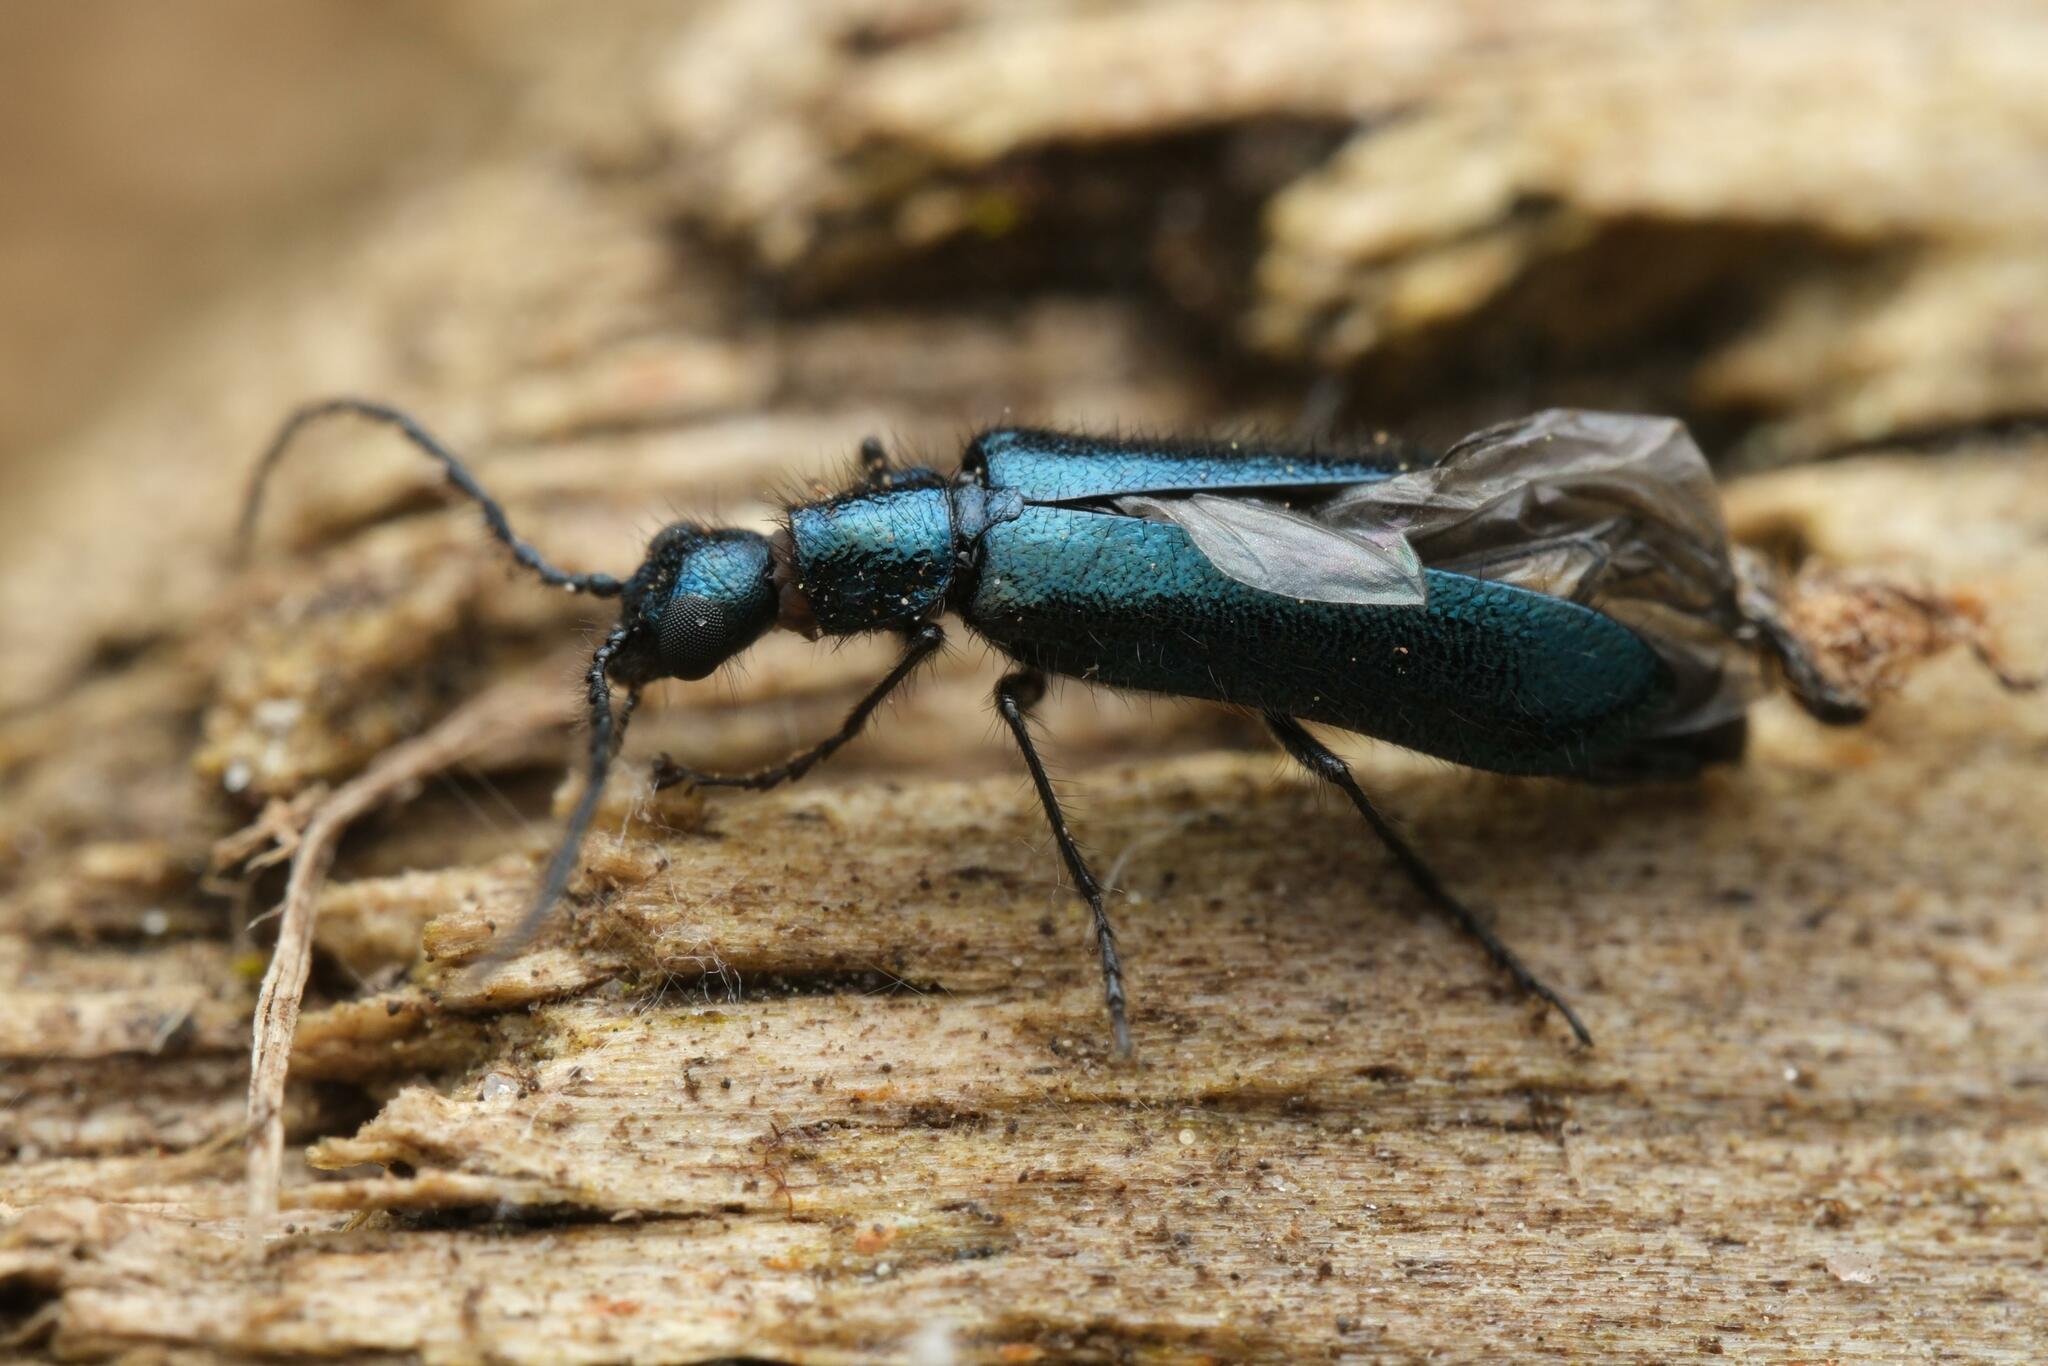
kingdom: Animalia
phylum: Arthropoda
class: Insecta
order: Coleoptera
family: Melyridae
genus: Dasytes
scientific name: Dasytes caeruleus
